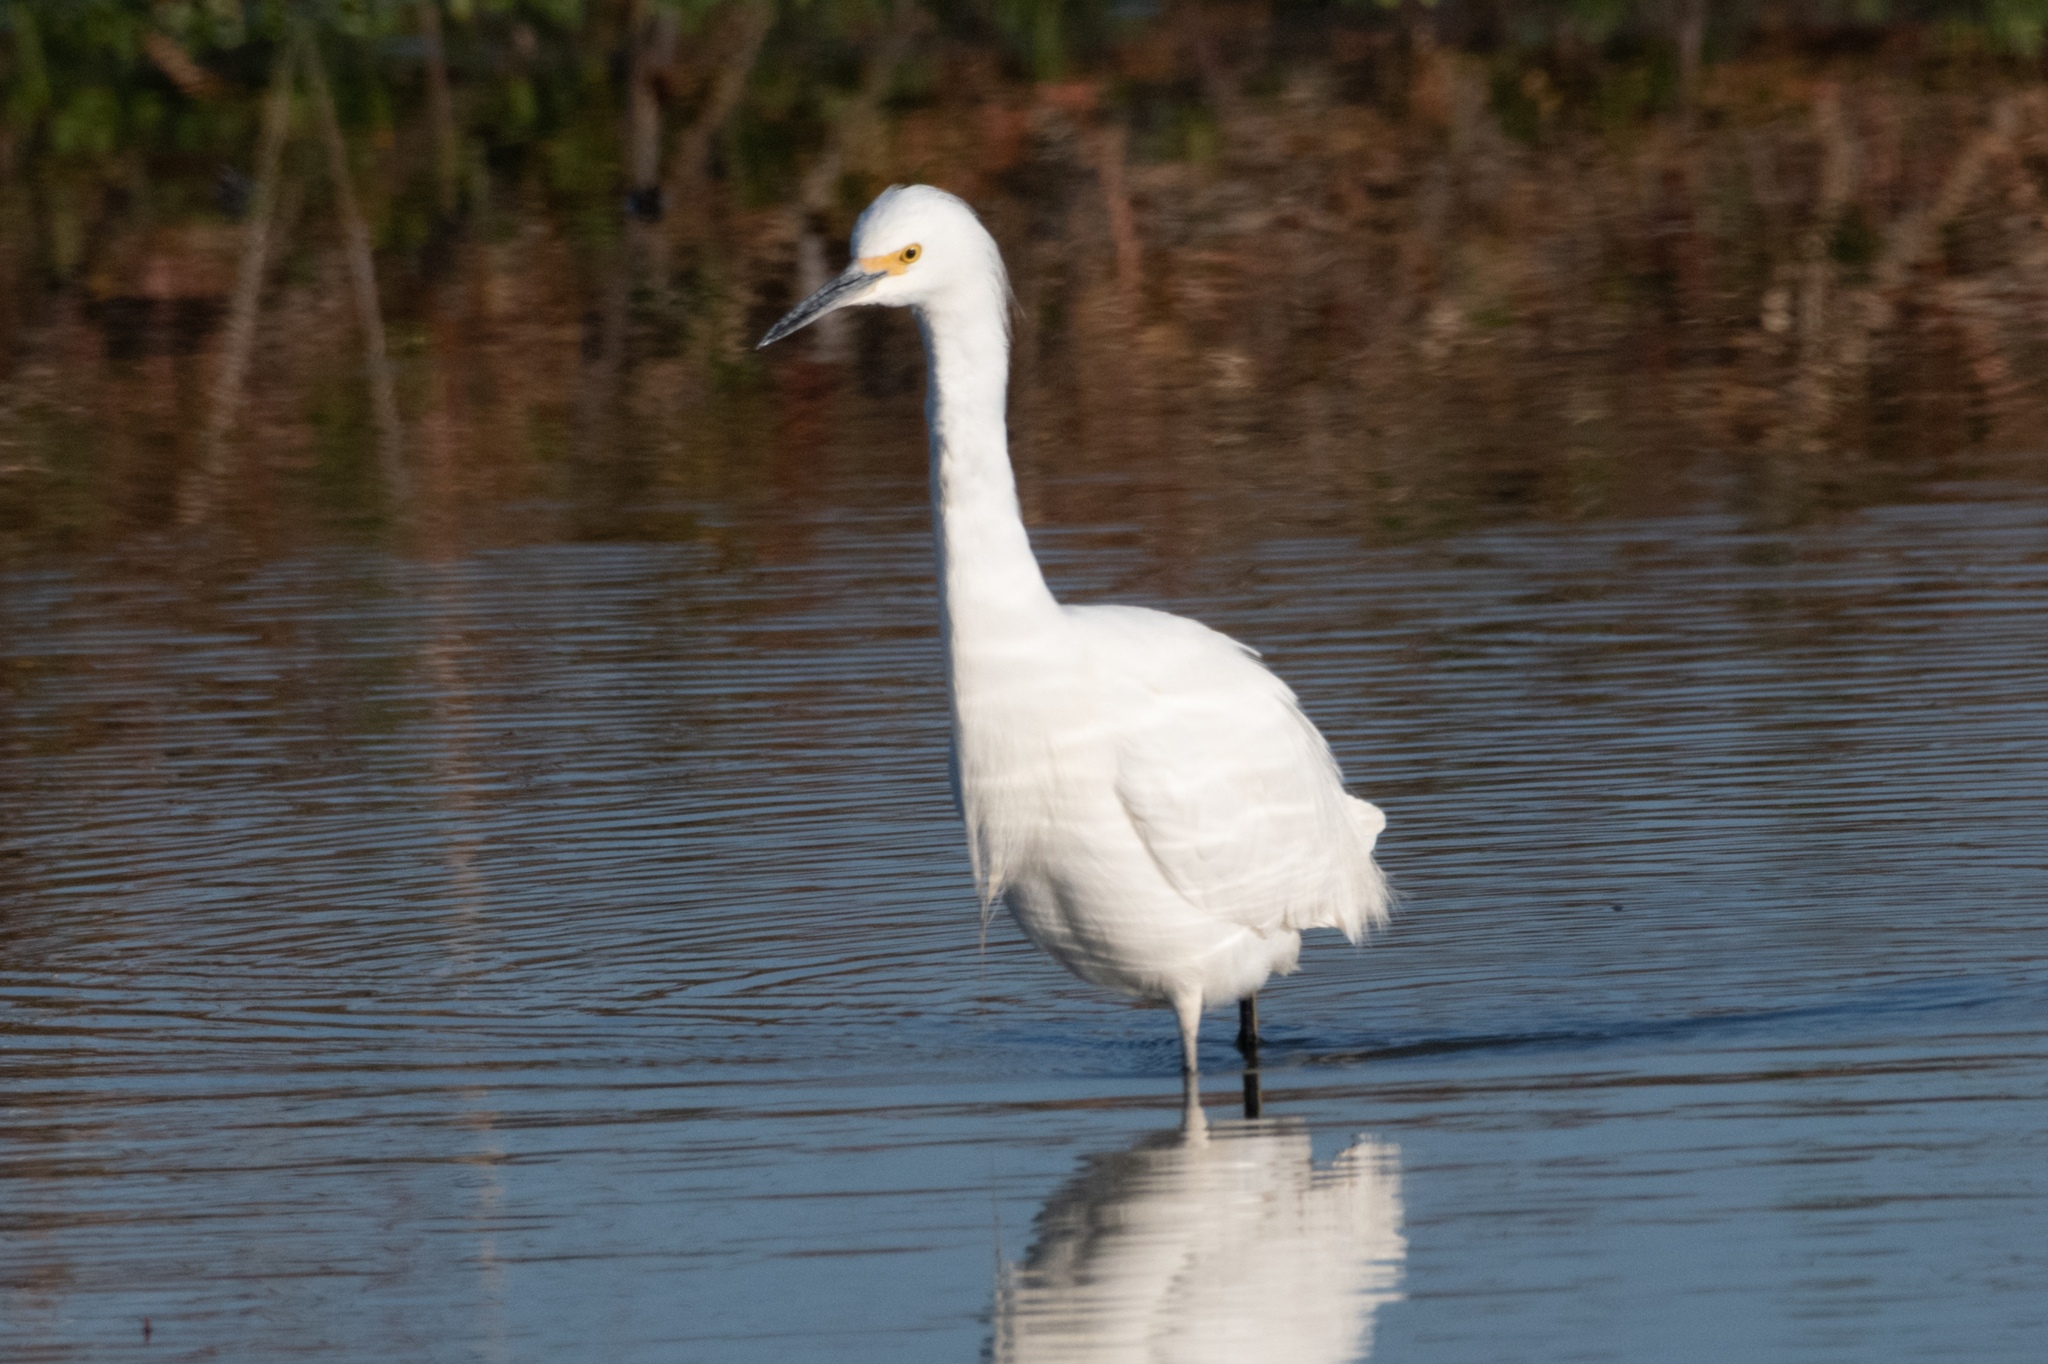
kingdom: Animalia
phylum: Chordata
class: Aves
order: Pelecaniformes
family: Ardeidae
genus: Egretta
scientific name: Egretta thula
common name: Snowy egret
